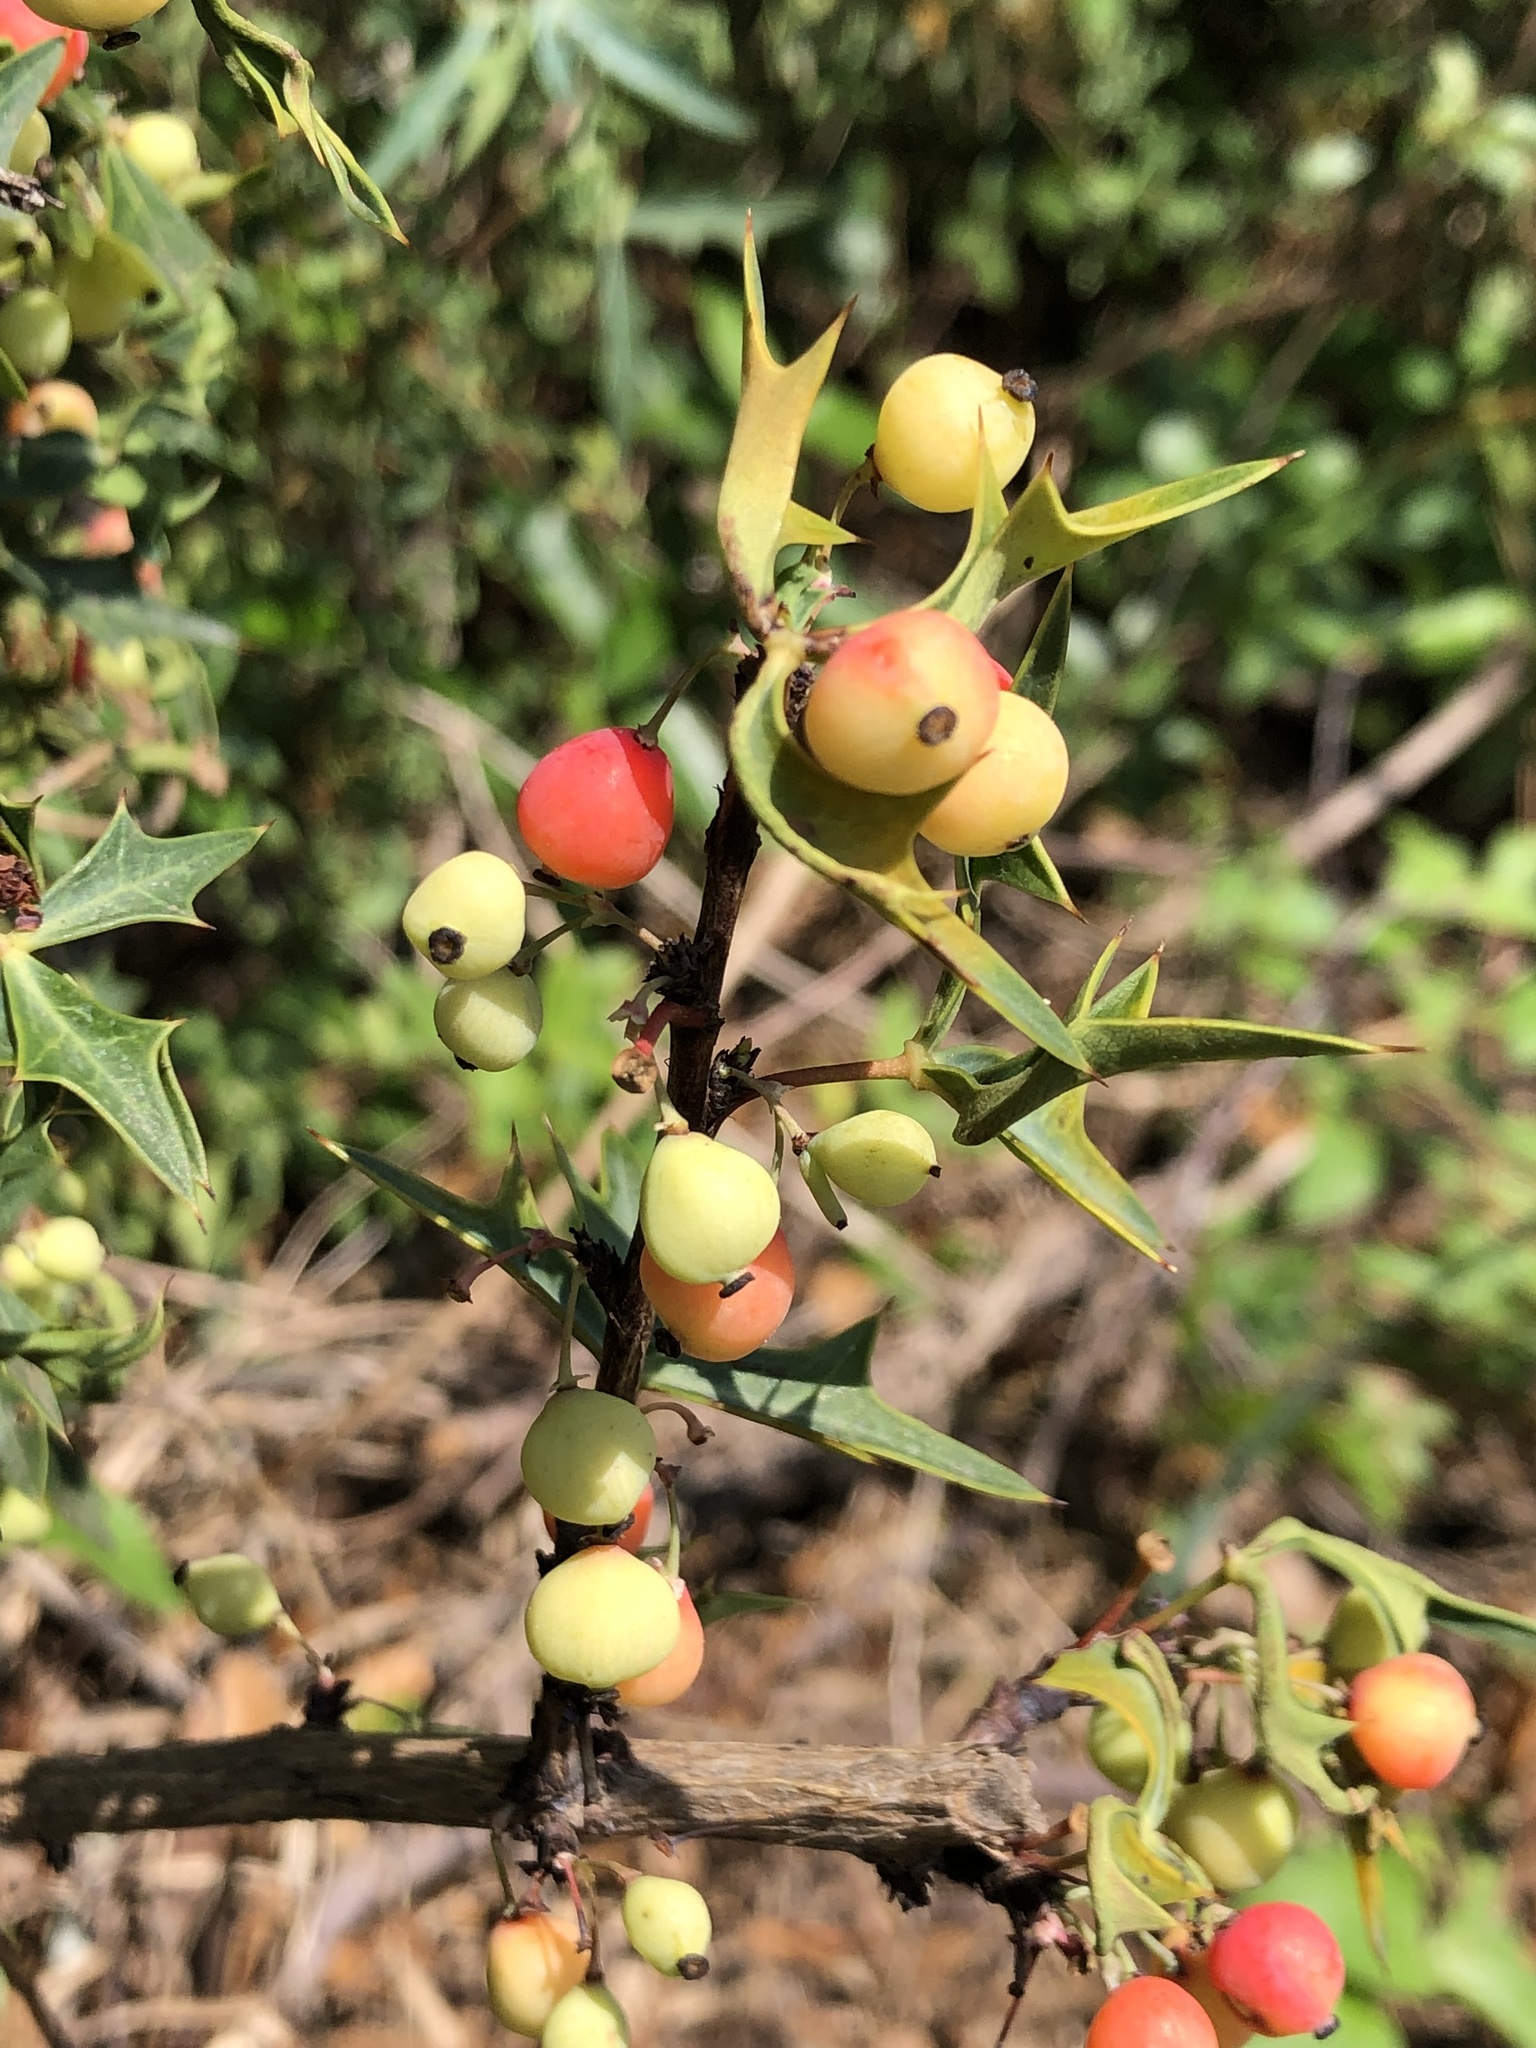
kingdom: Plantae
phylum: Tracheophyta
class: Magnoliopsida
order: Ranunculales
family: Berberidaceae
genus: Alloberberis
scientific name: Alloberberis trifoliolata
